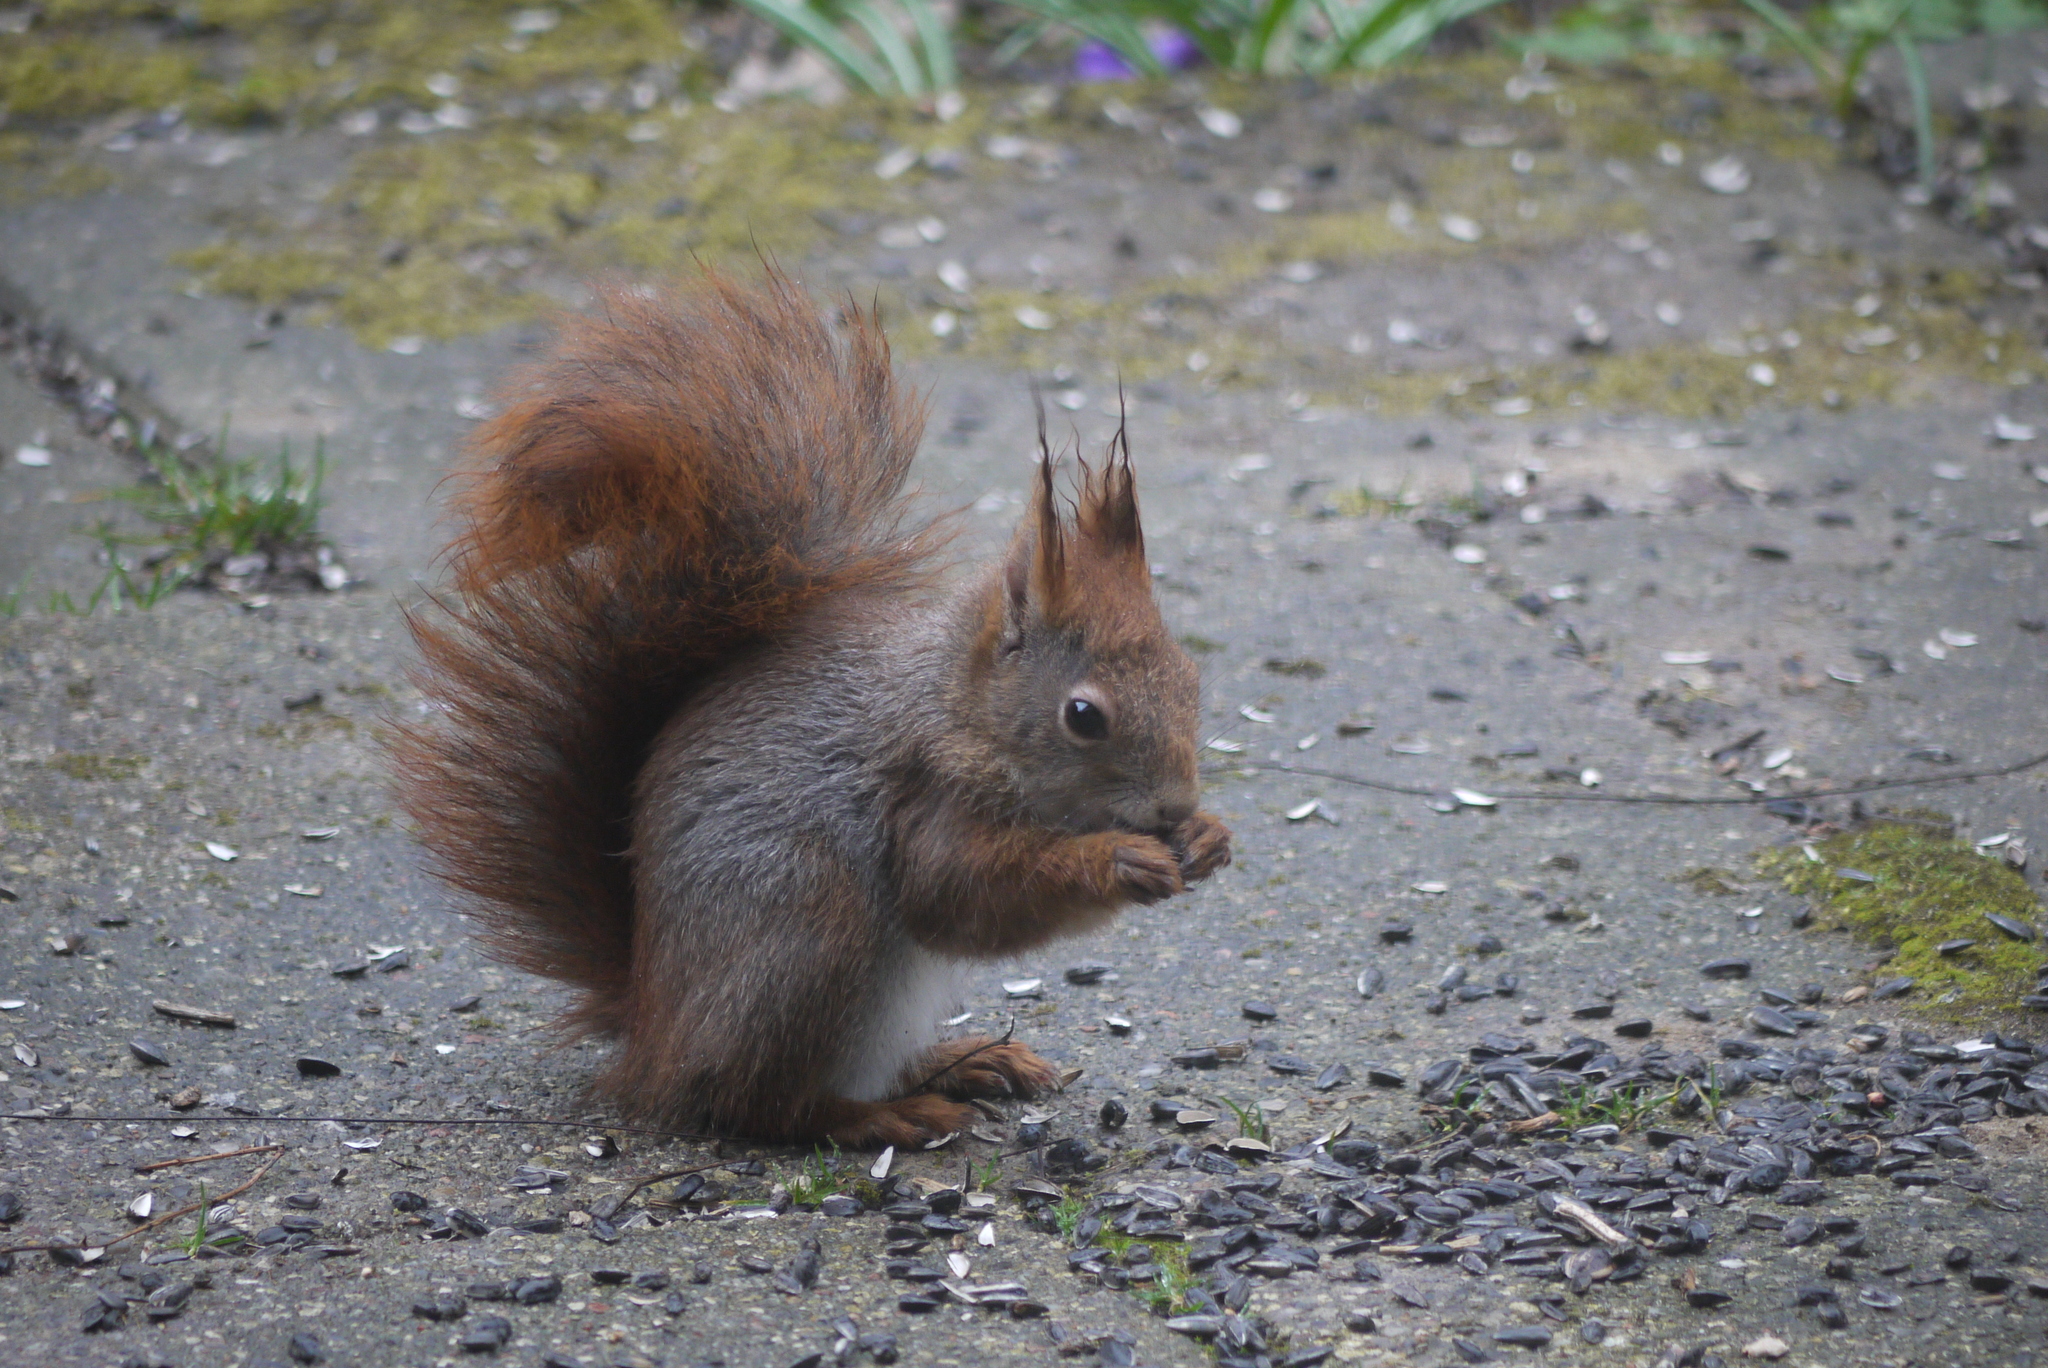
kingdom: Animalia
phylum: Chordata
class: Mammalia
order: Rodentia
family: Sciuridae
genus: Sciurus
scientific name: Sciurus vulgaris
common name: Eurasian red squirrel
